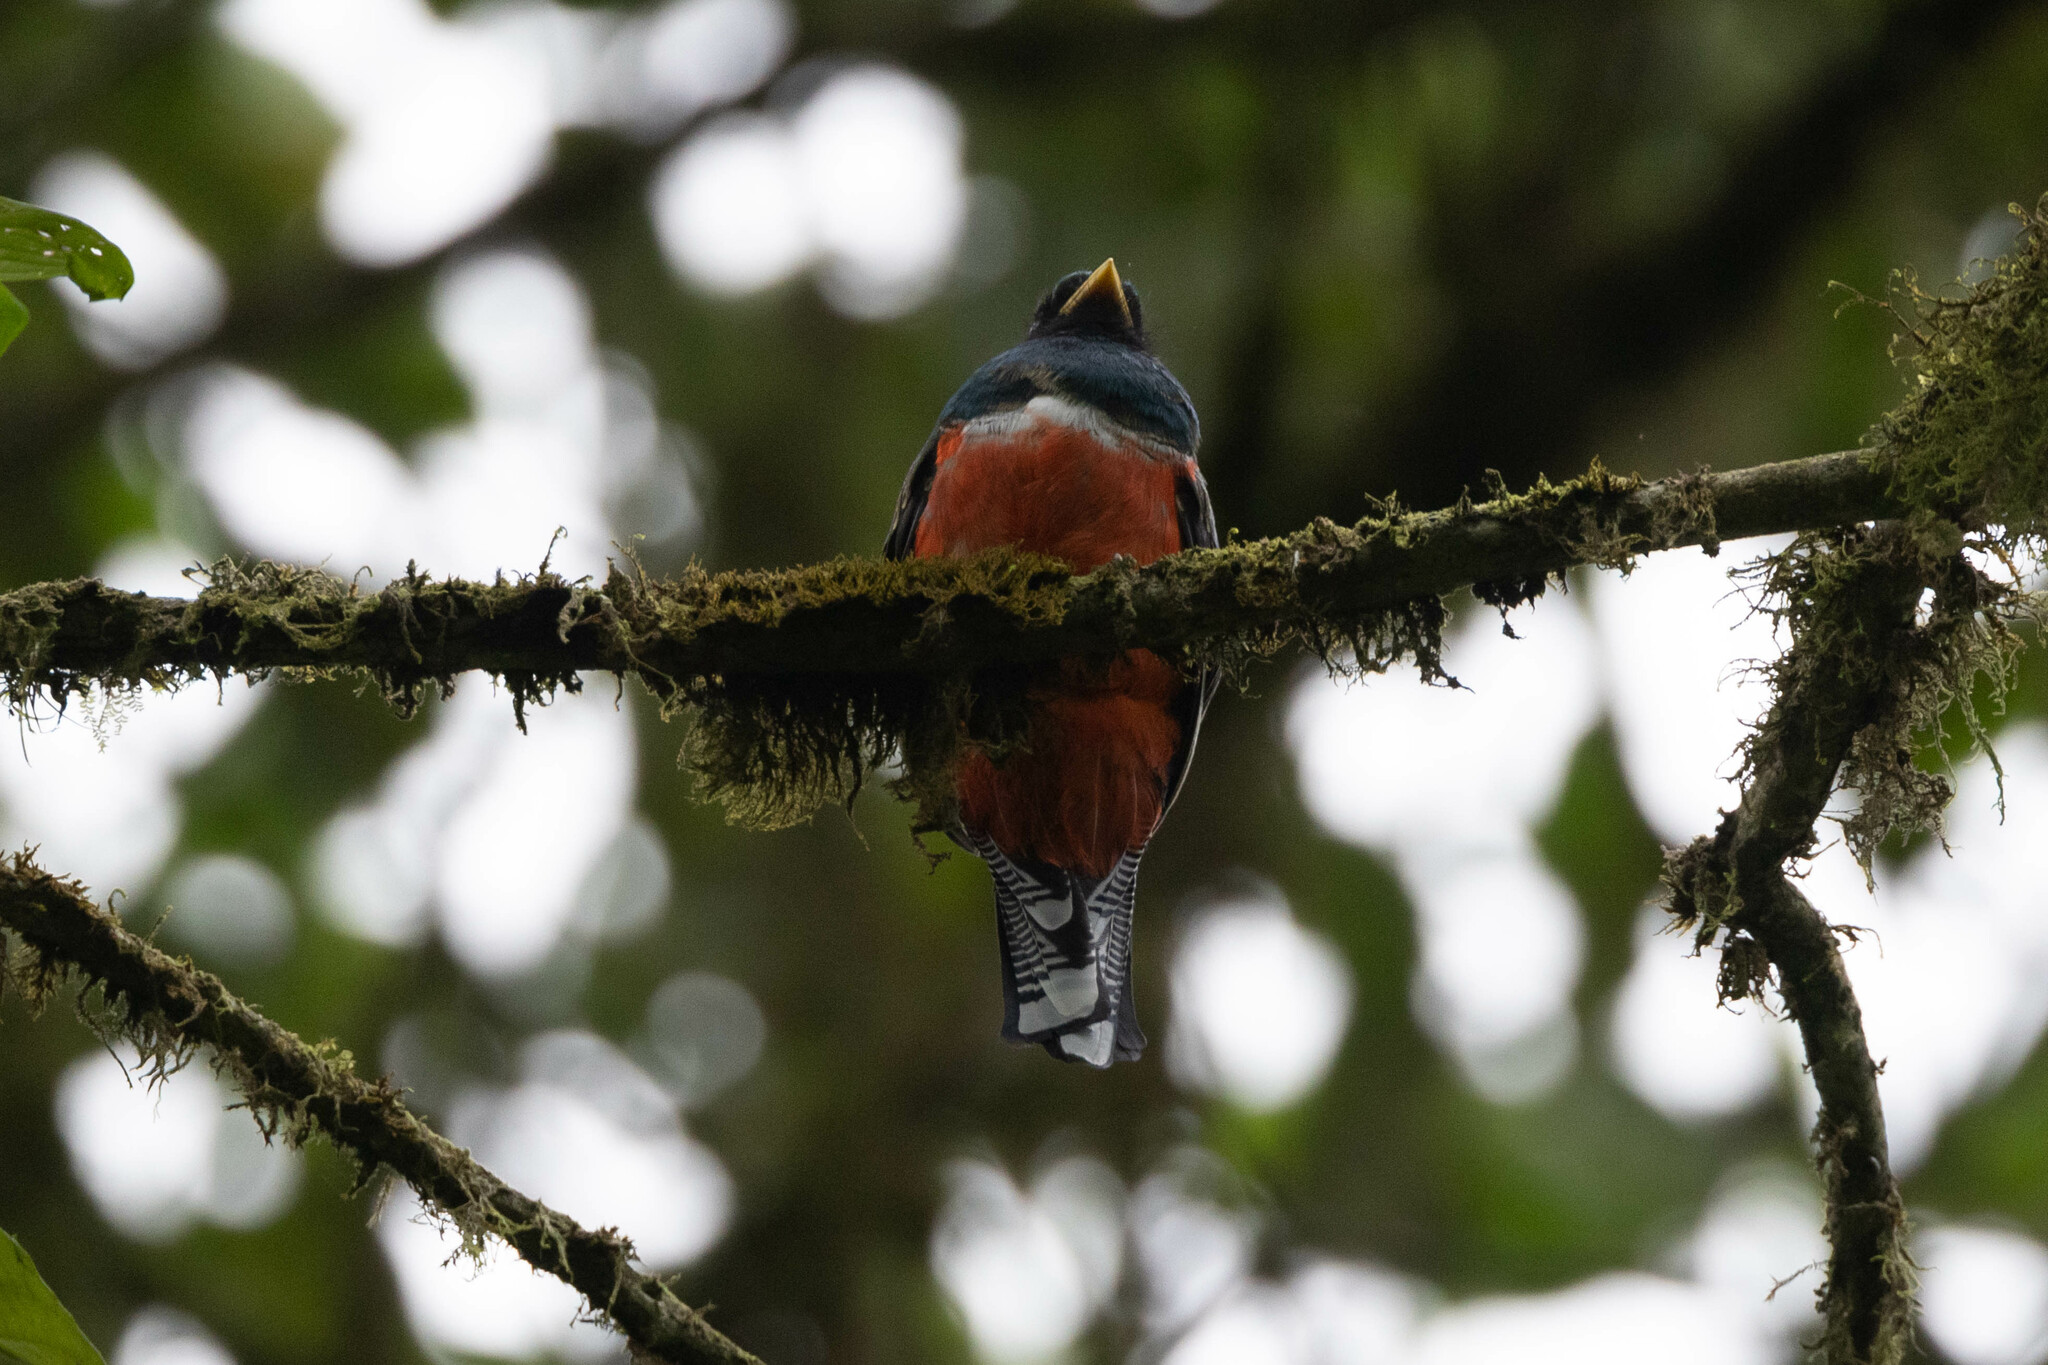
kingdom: Animalia
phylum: Chordata
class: Aves
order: Trogoniformes
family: Trogonidae
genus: Trogon
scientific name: Trogon collaris
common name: Collared trogon
